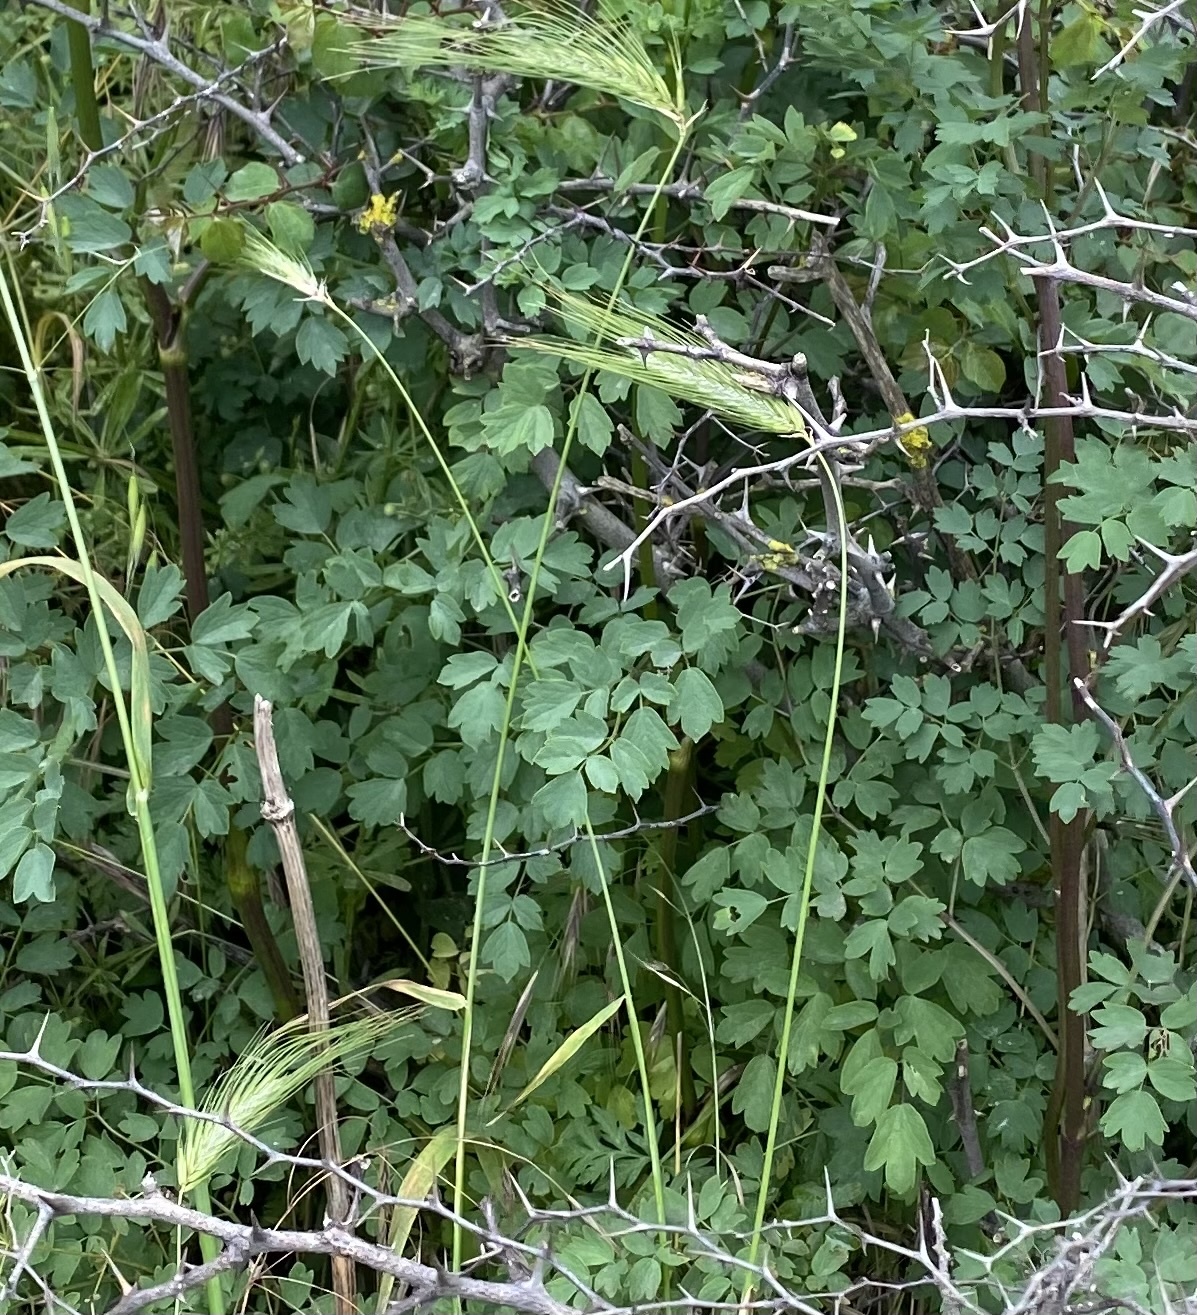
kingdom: Plantae
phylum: Tracheophyta
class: Magnoliopsida
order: Ranunculales
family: Ranunculaceae
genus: Thalictrum
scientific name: Thalictrum minus
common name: Lesser meadow-rue
